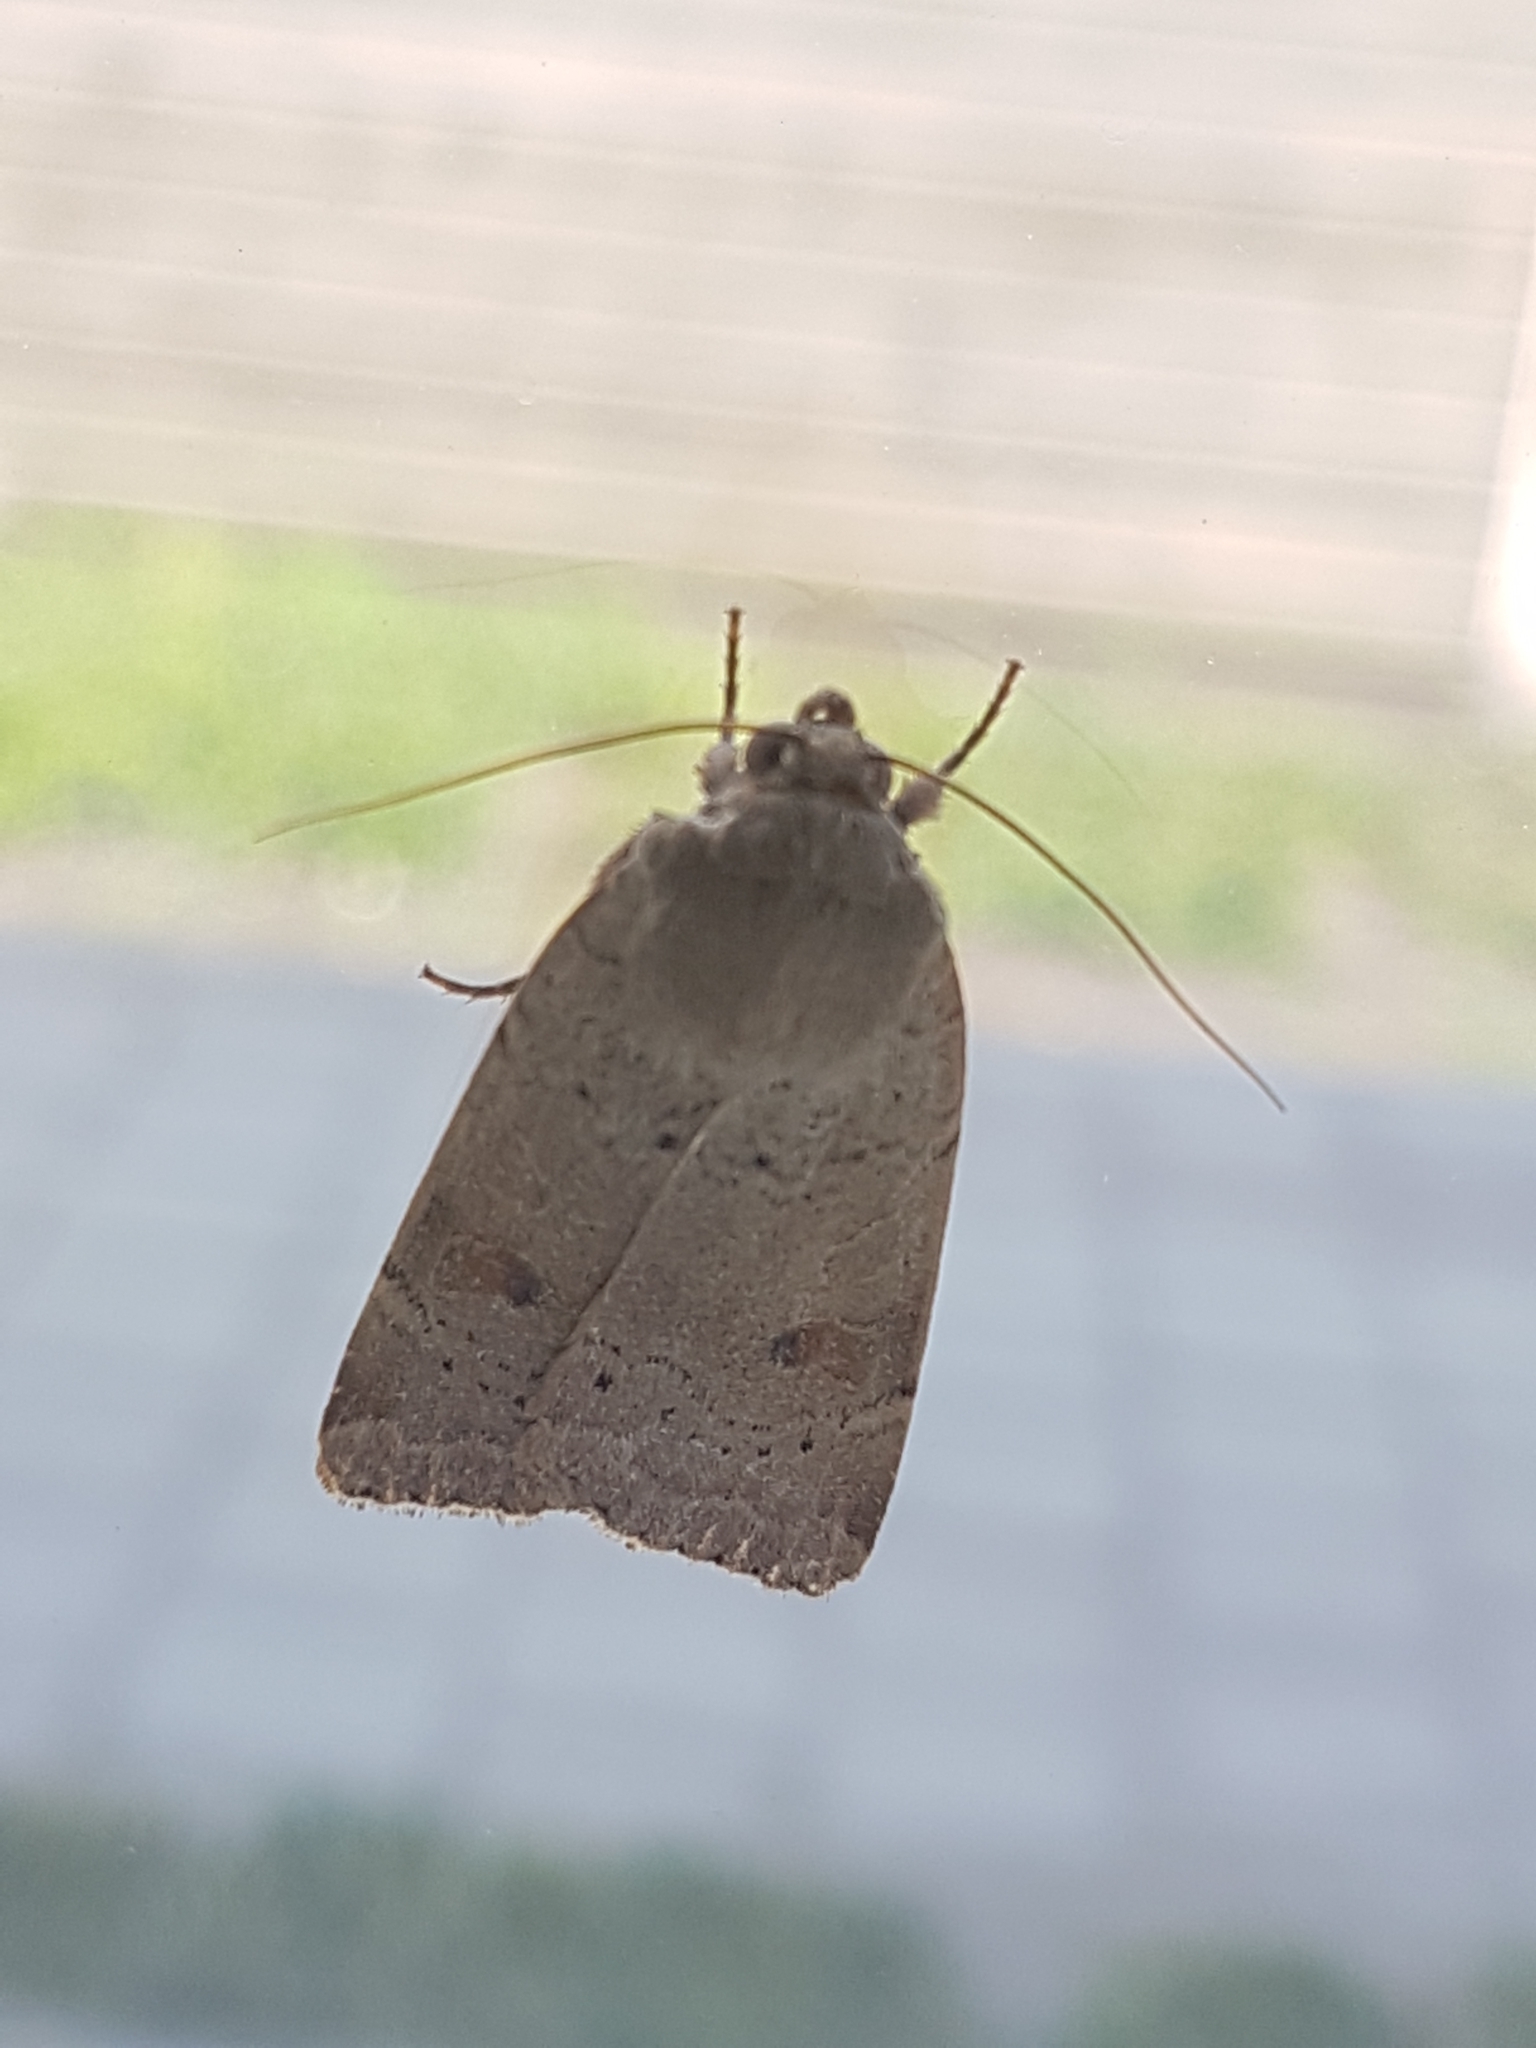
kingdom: Animalia
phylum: Arthropoda
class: Insecta
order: Lepidoptera
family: Noctuidae
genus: Noctua
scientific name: Noctua comes
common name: Lesser yellow underwing
